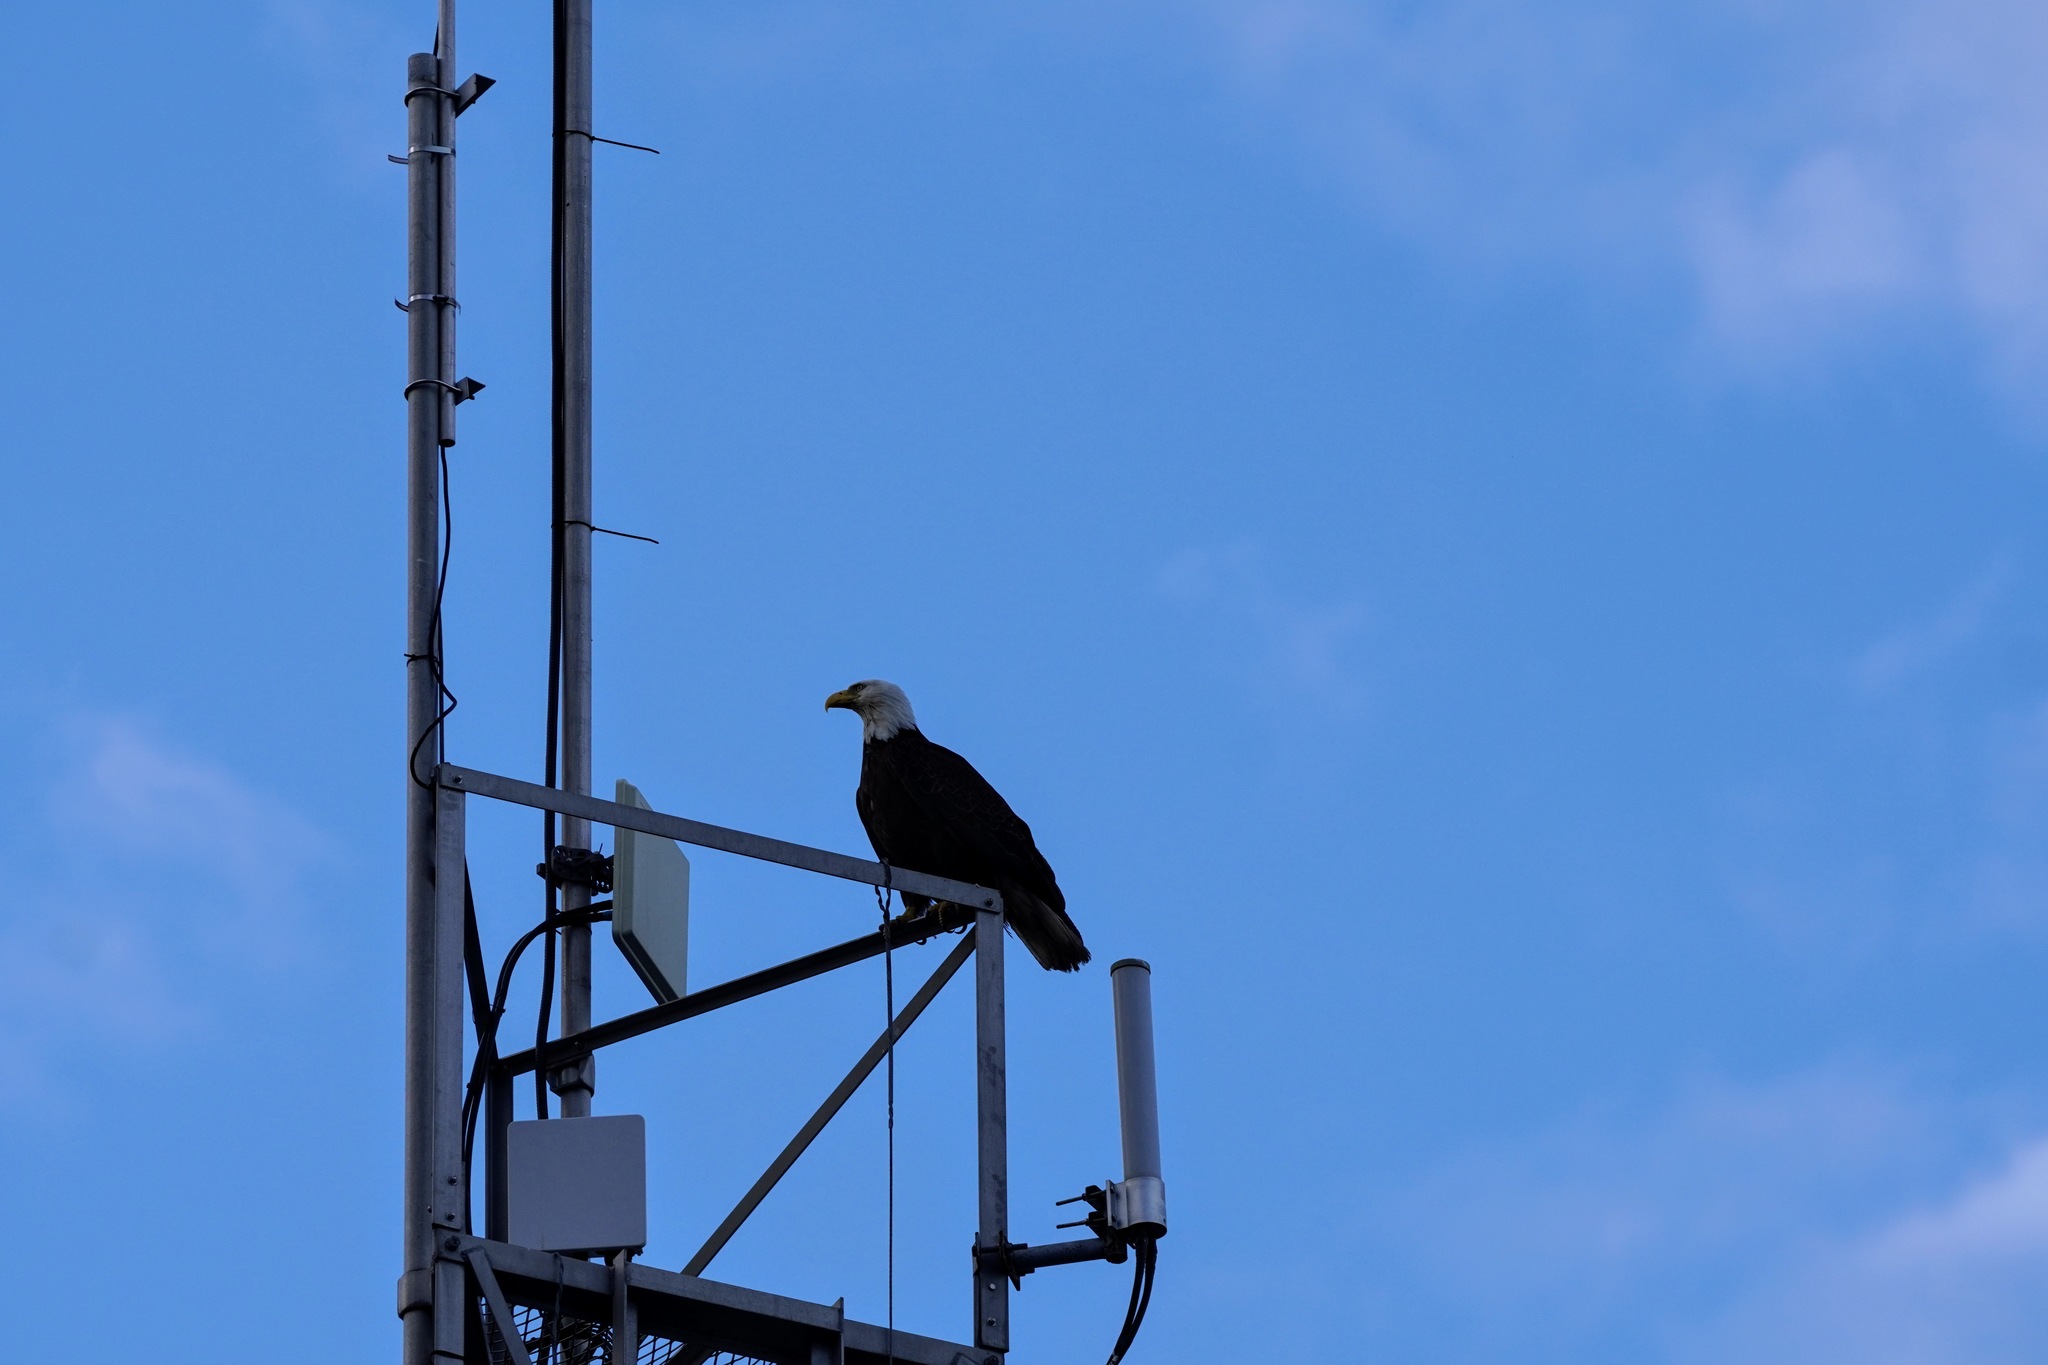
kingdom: Animalia
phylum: Chordata
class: Aves
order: Accipitriformes
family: Accipitridae
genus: Haliaeetus
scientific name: Haliaeetus leucocephalus
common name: Bald eagle
